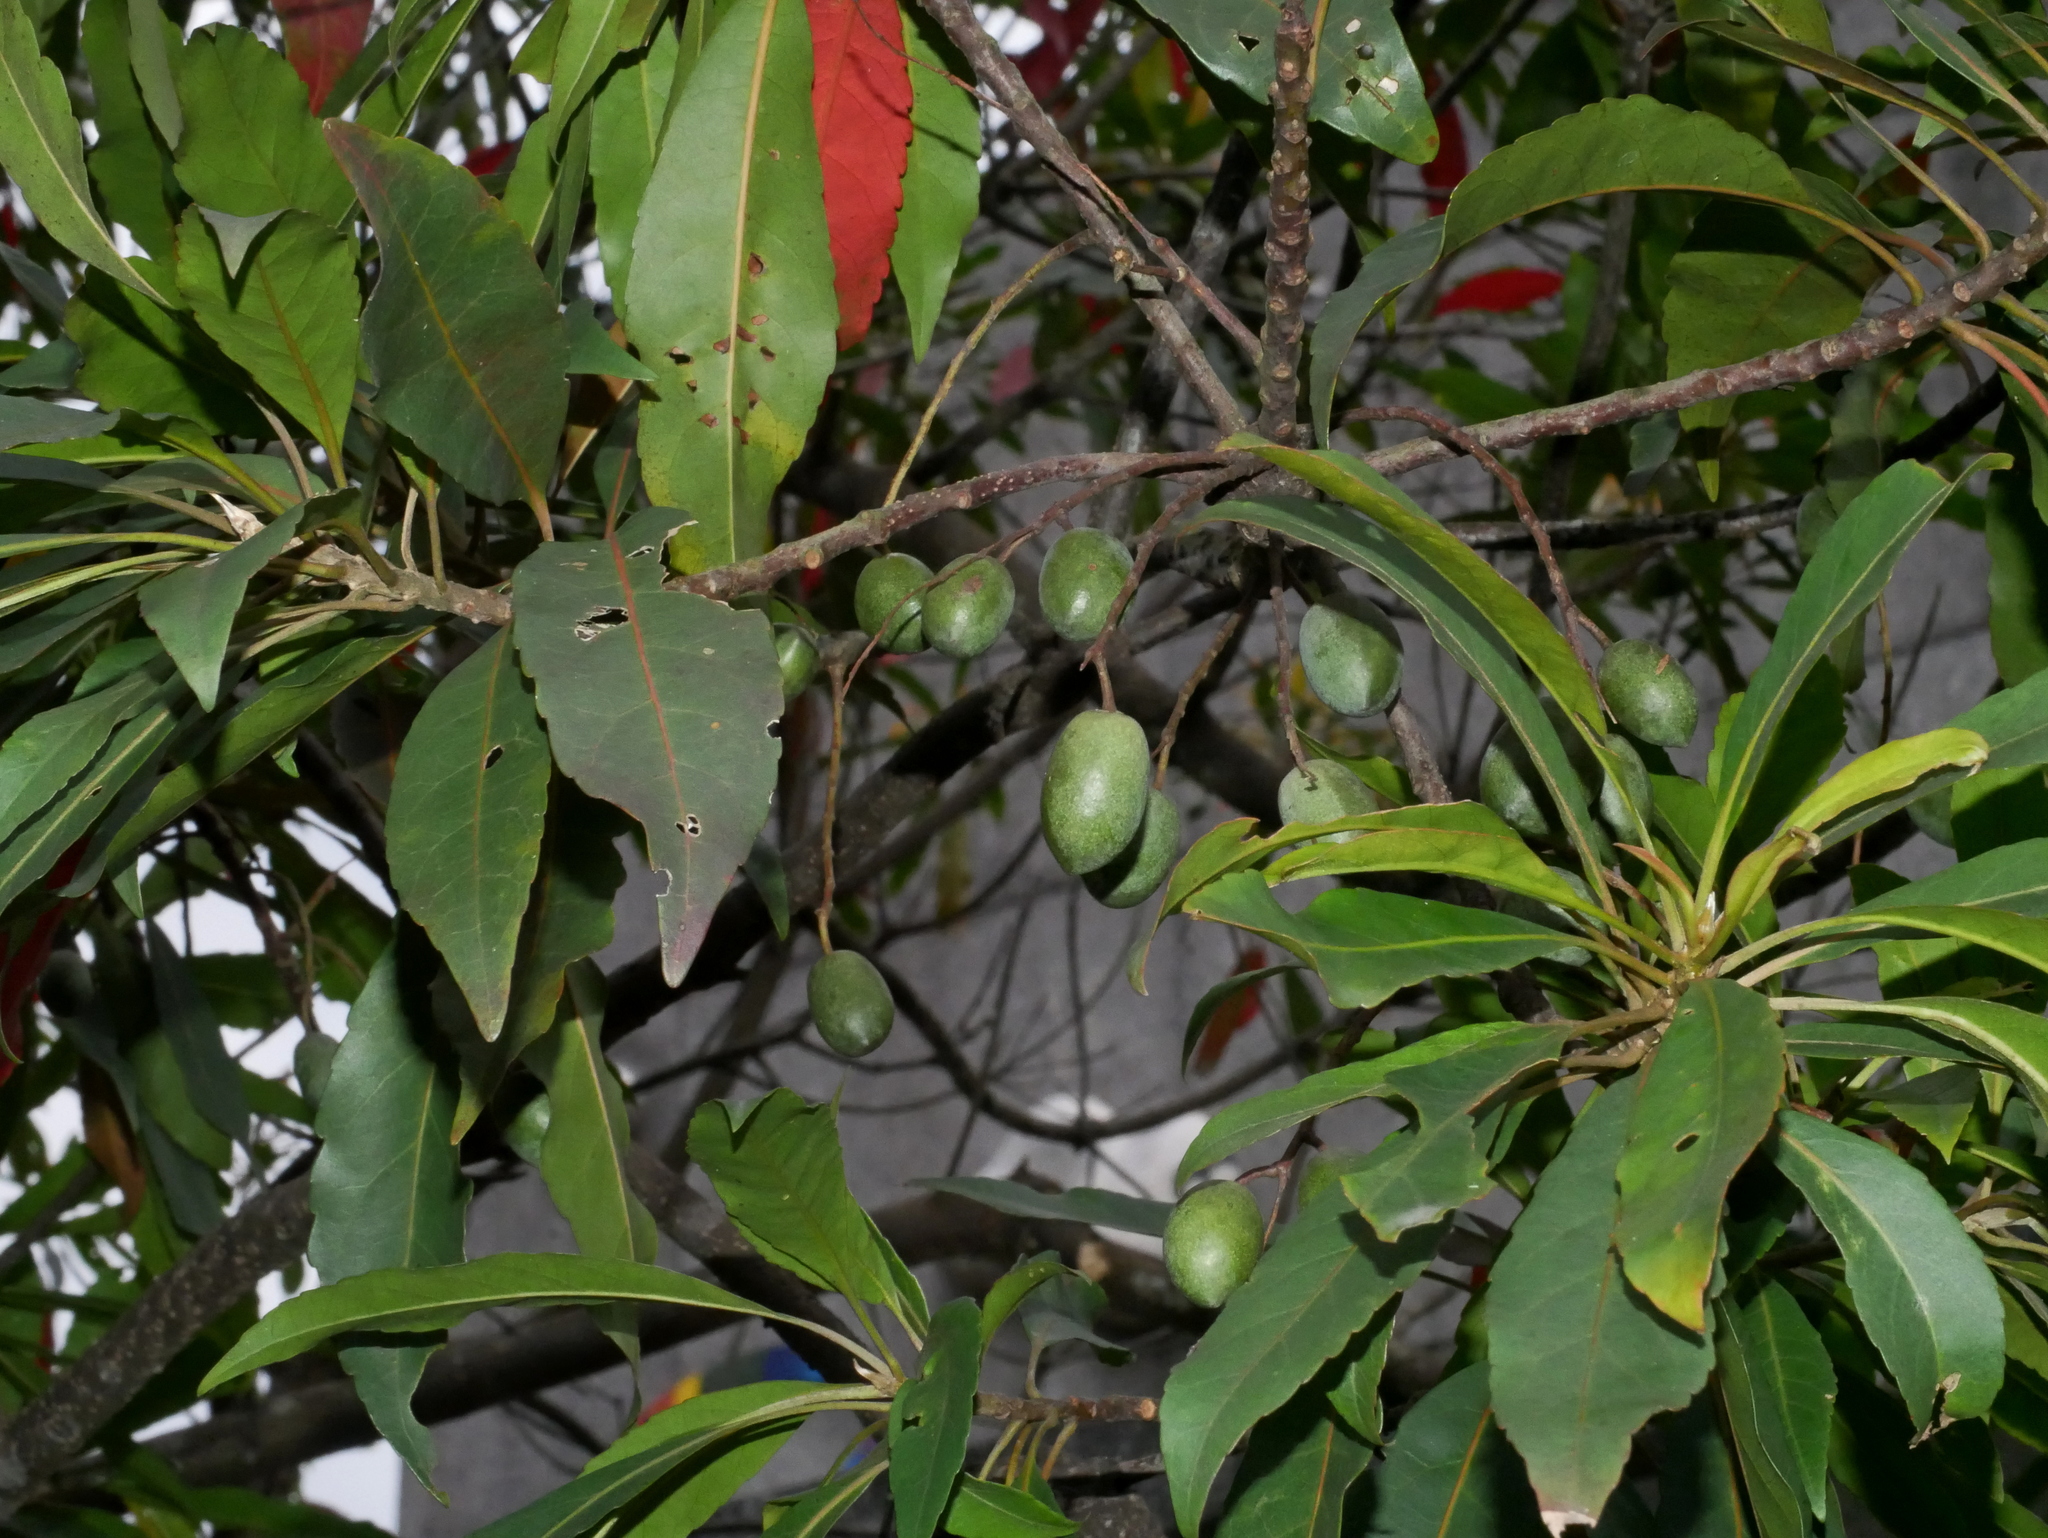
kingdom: Plantae
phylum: Tracheophyta
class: Magnoliopsida
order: Oxalidales
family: Elaeocarpaceae
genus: Elaeocarpus
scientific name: Elaeocarpus decipiens
